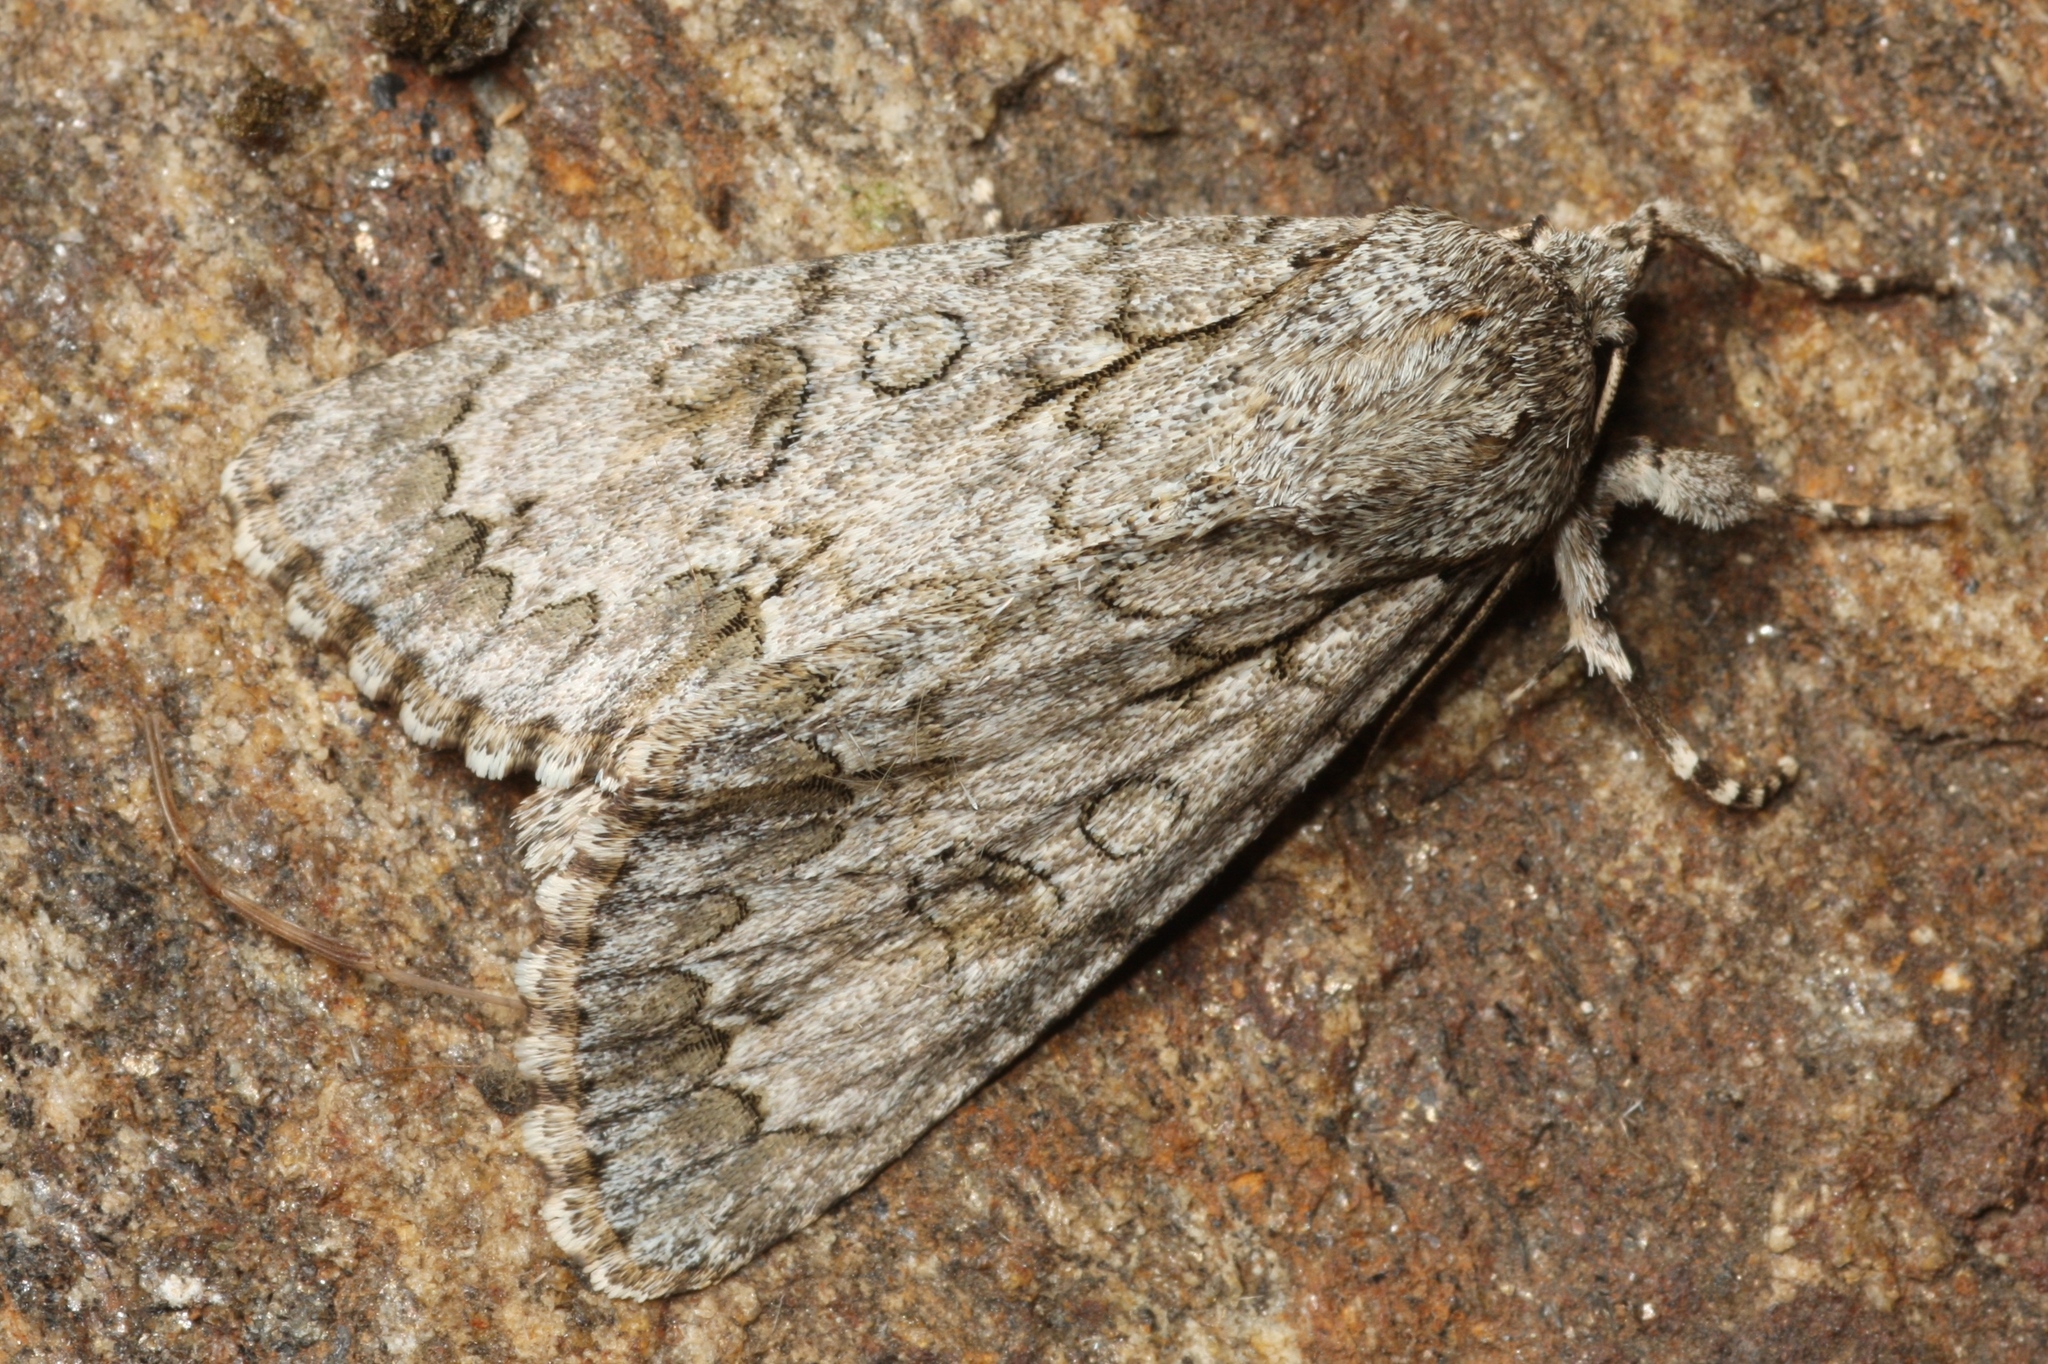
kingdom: Animalia
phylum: Arthropoda
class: Insecta
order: Lepidoptera
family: Noctuidae
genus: Acronicta
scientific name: Acronicta aceris
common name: Sycamore
